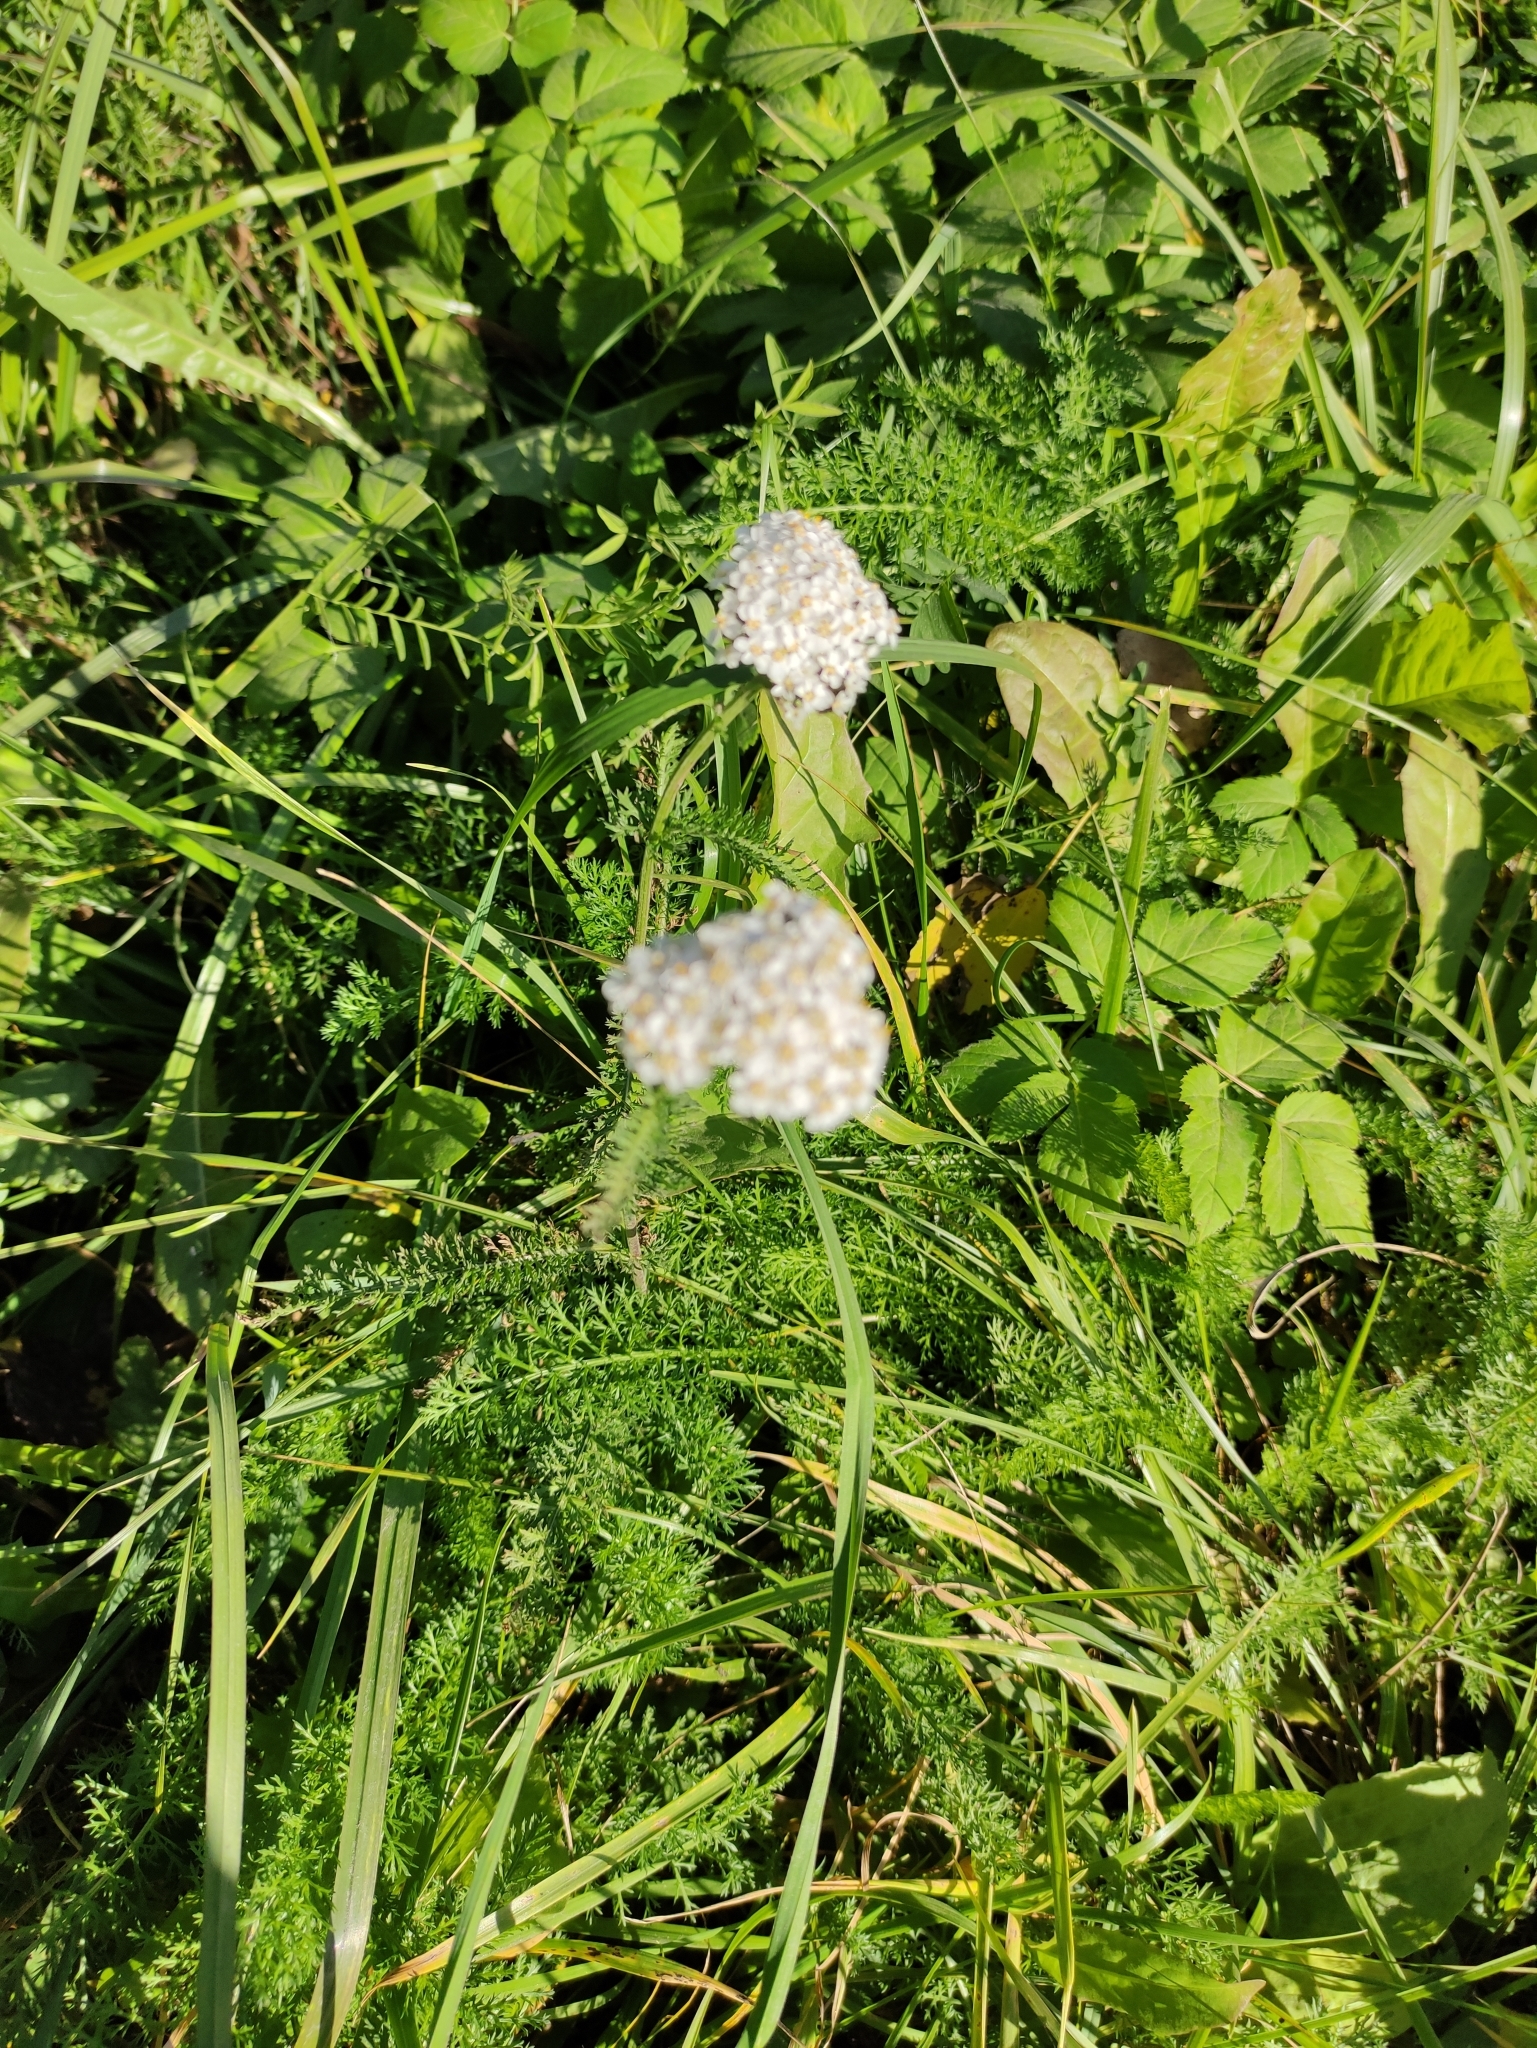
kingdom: Plantae
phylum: Tracheophyta
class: Magnoliopsida
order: Asterales
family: Asteraceae
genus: Achillea
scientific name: Achillea millefolium
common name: Yarrow
